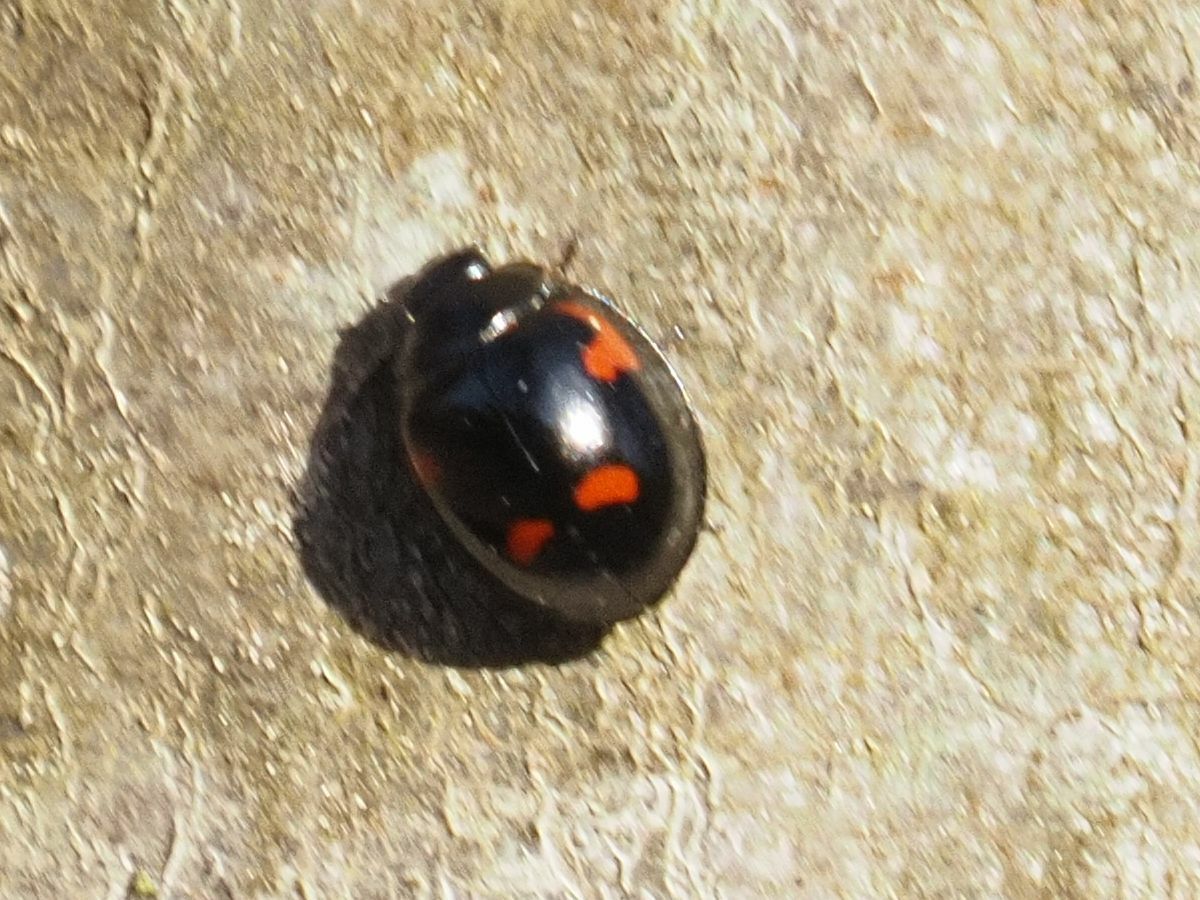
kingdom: Animalia
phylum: Arthropoda
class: Insecta
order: Coleoptera
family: Coccinellidae
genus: Brumus
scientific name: Brumus quadripustulatus
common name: Ladybird beetle
